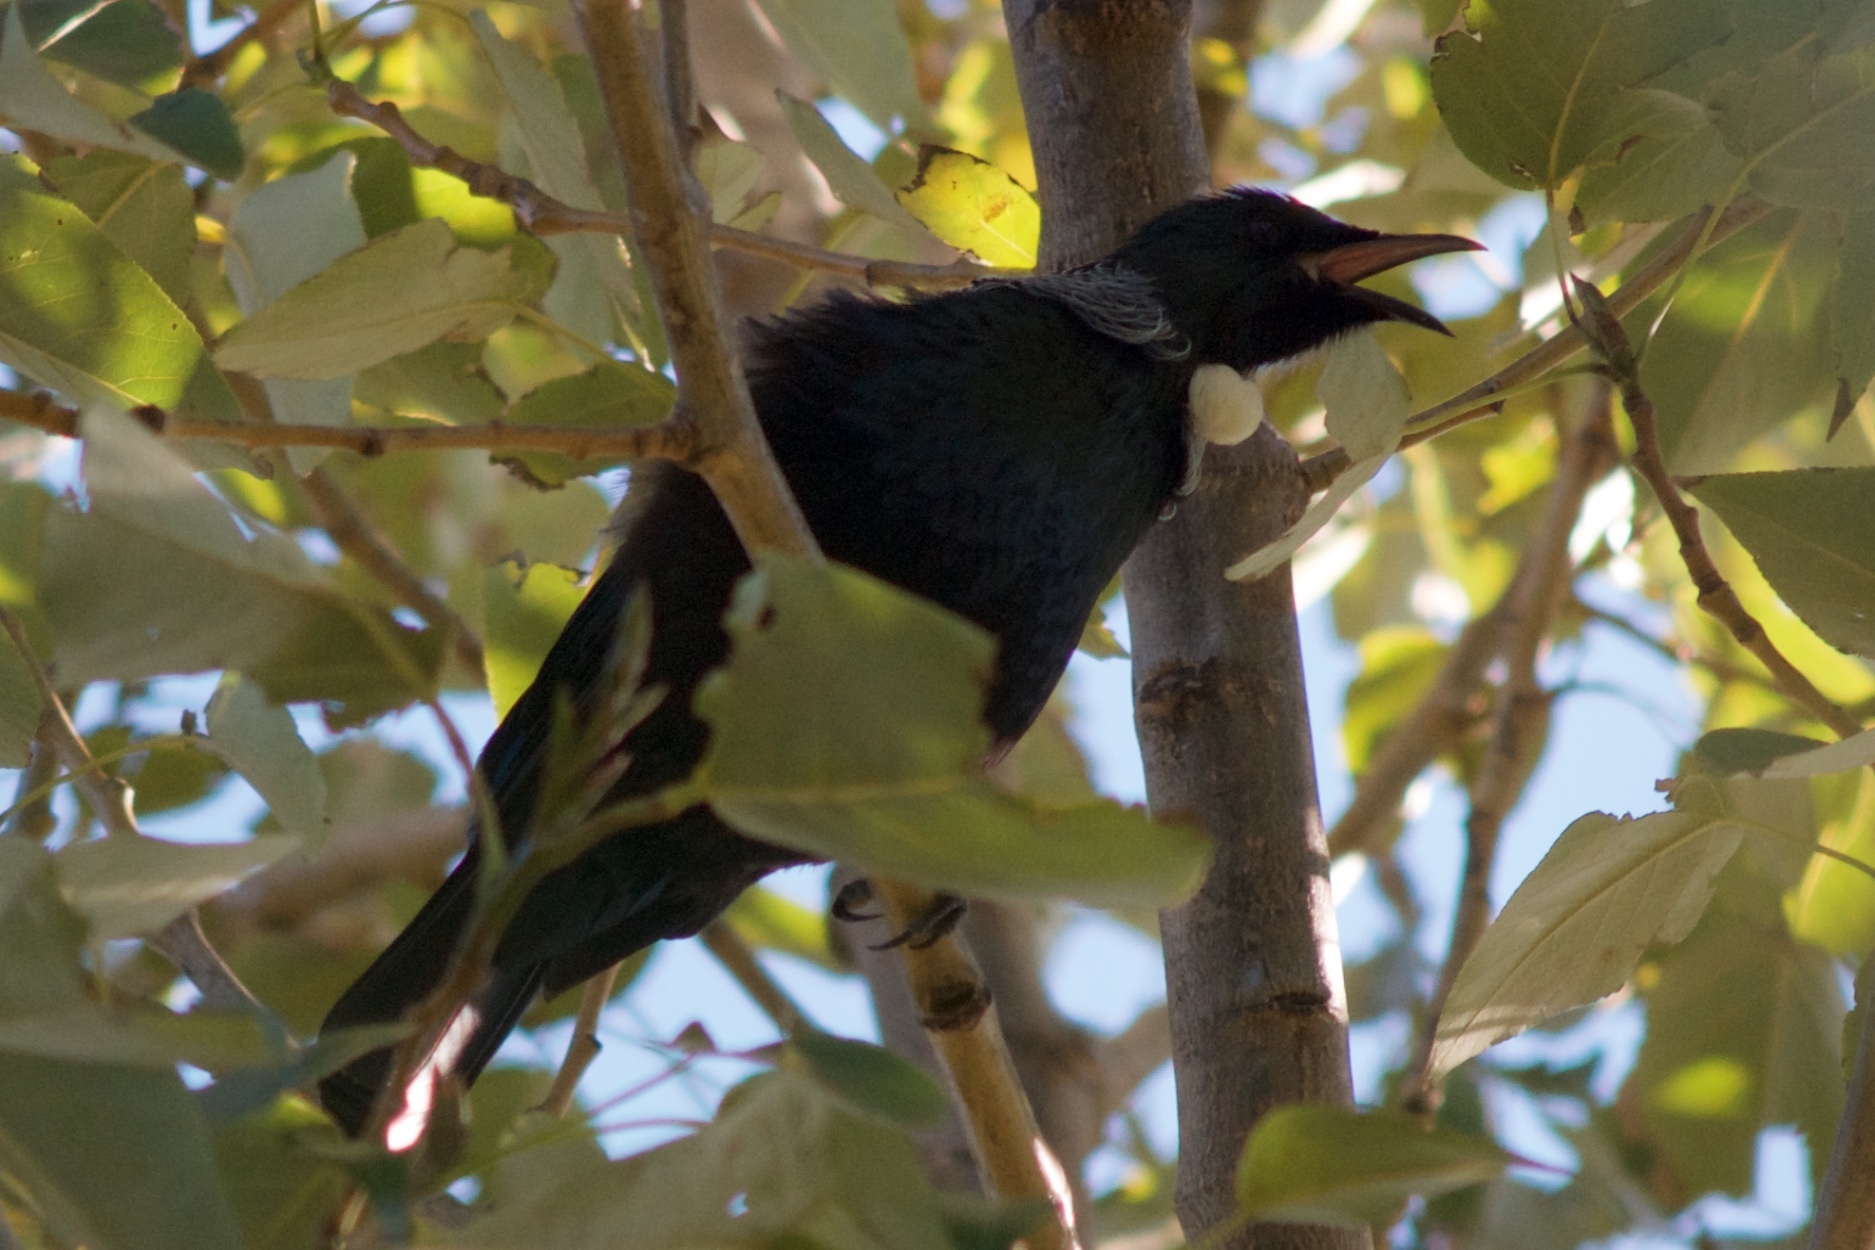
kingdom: Animalia
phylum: Chordata
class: Aves
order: Passeriformes
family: Meliphagidae
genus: Prosthemadera
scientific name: Prosthemadera novaeseelandiae
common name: Tui
